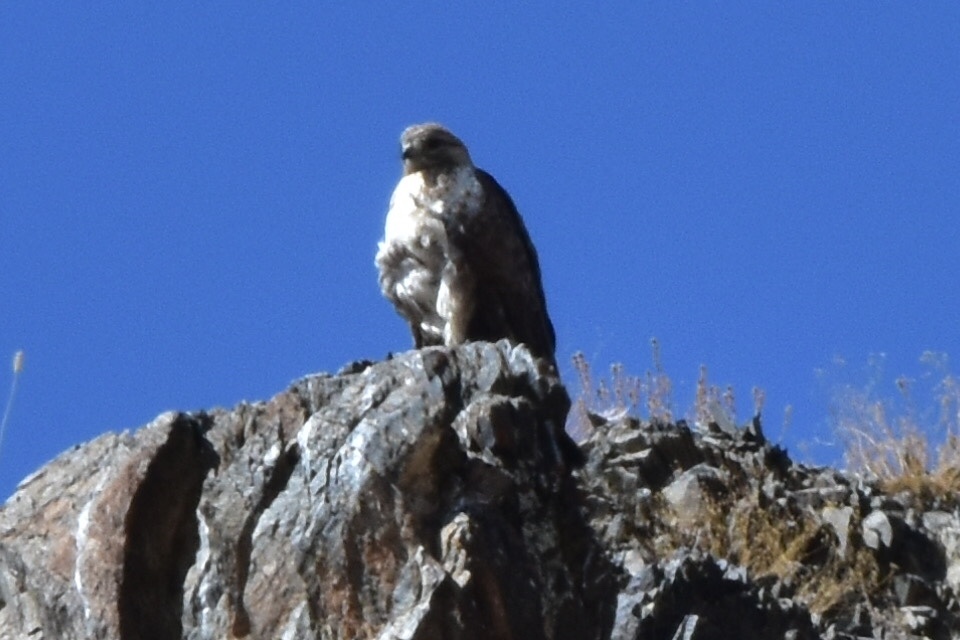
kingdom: Animalia
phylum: Chordata
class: Aves
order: Accipitriformes
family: Accipitridae
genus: Buteo
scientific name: Buteo hemilasius
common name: Upland buzzard
